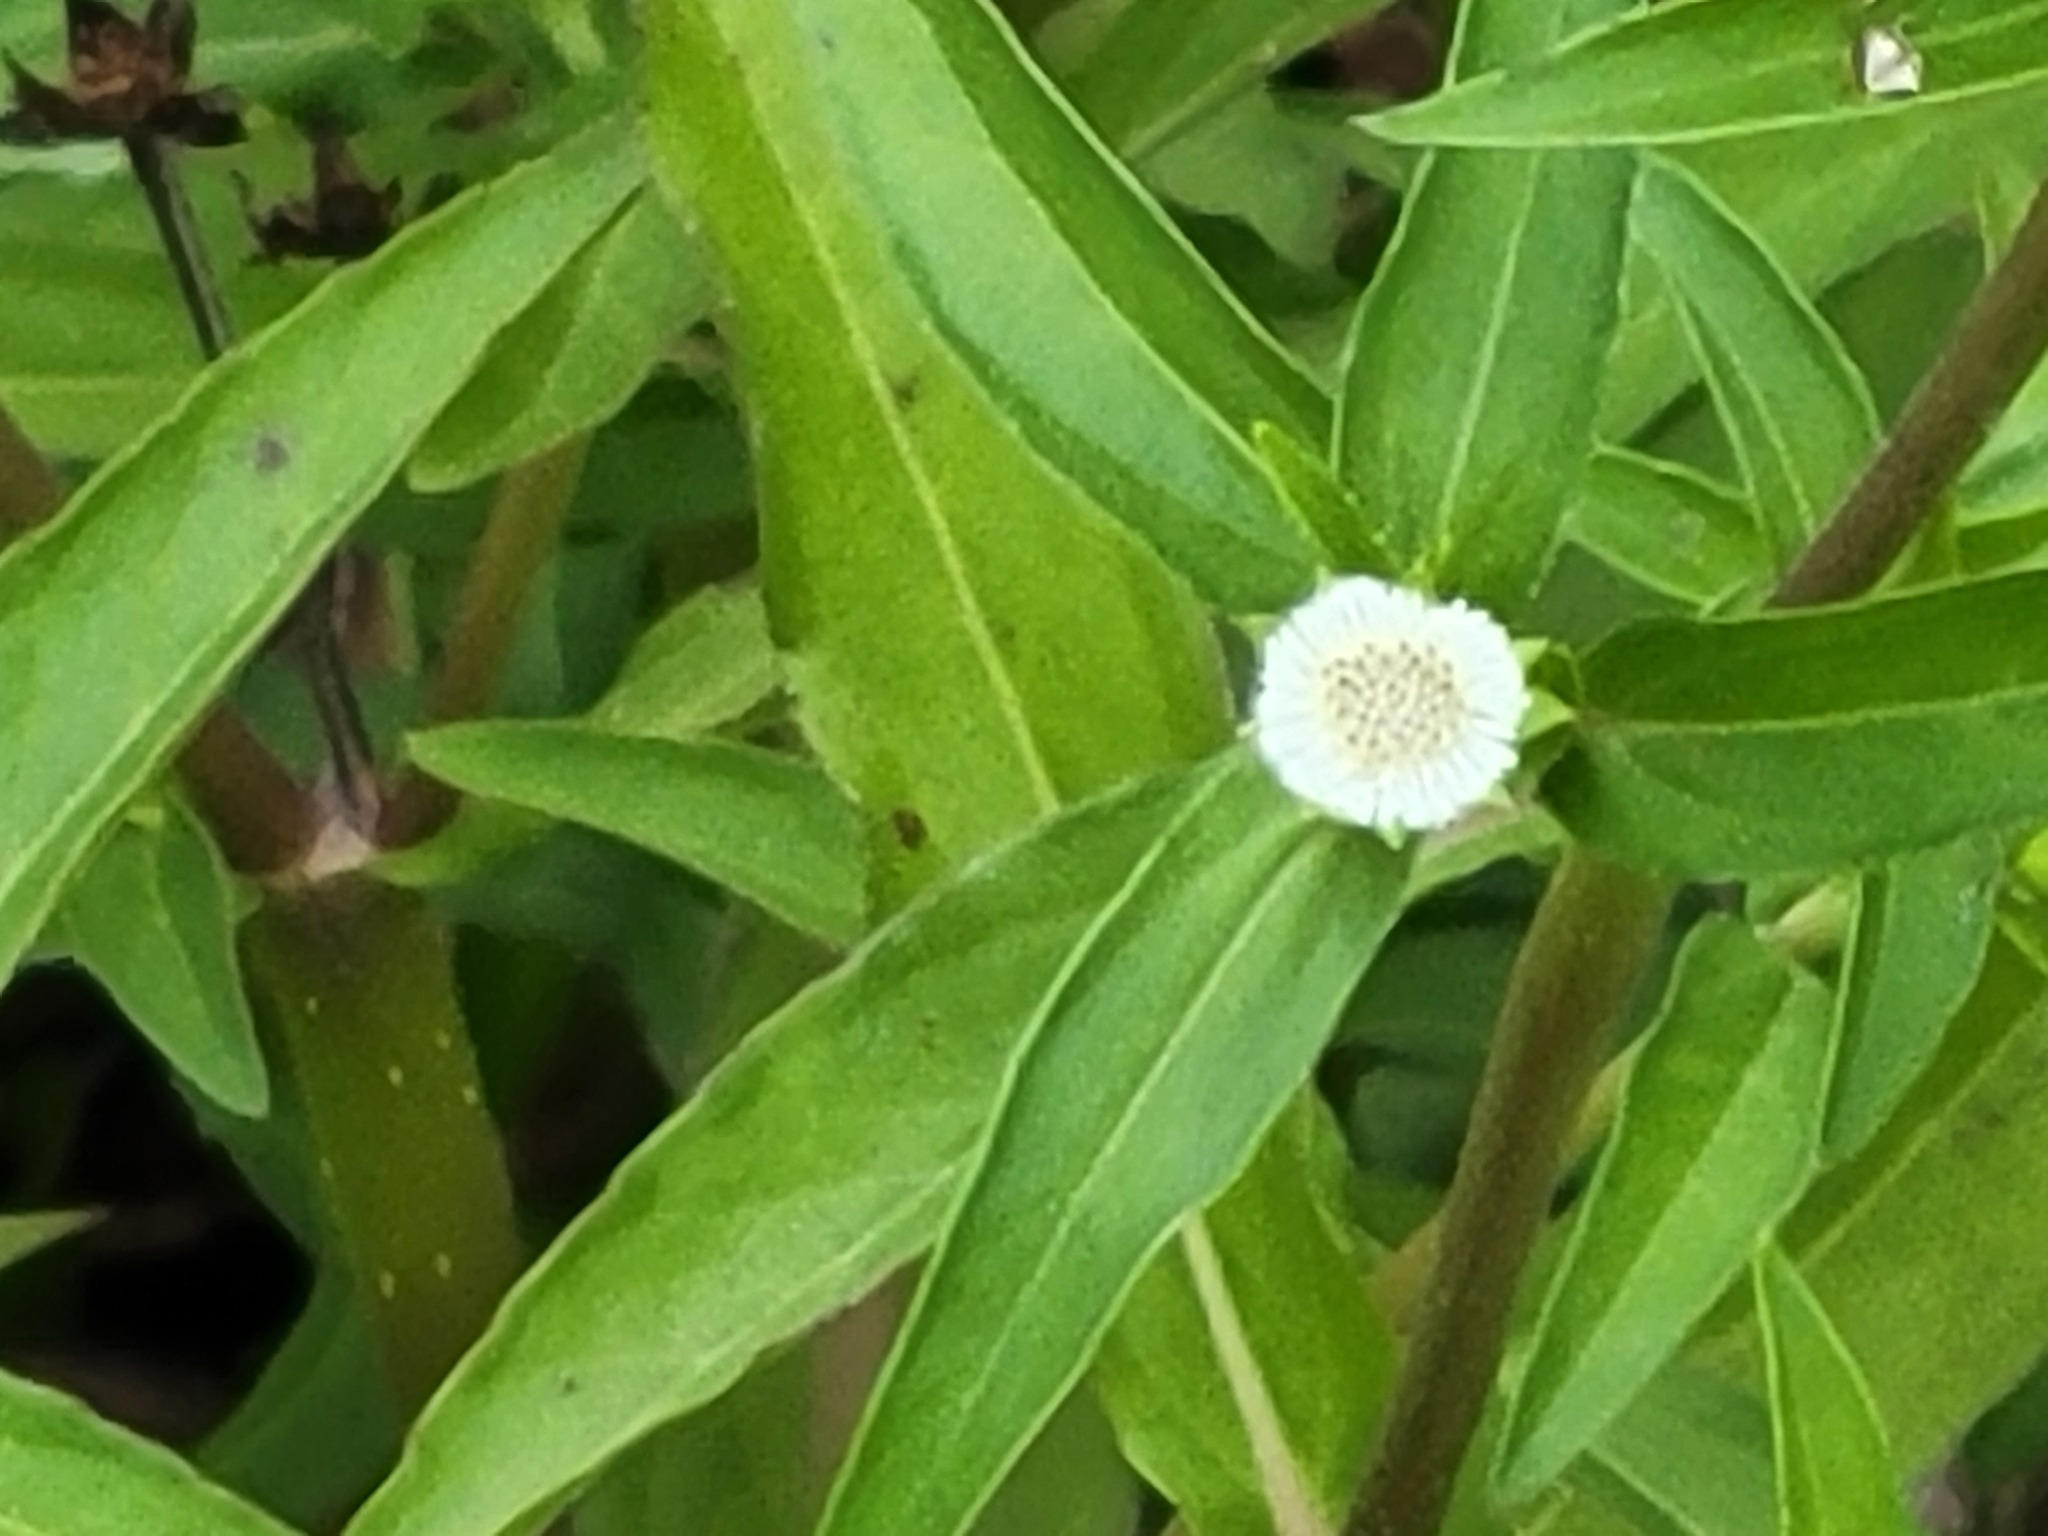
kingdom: Plantae
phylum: Tracheophyta
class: Magnoliopsida
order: Asterales
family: Asteraceae
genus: Eclipta
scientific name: Eclipta prostrata
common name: False daisy
